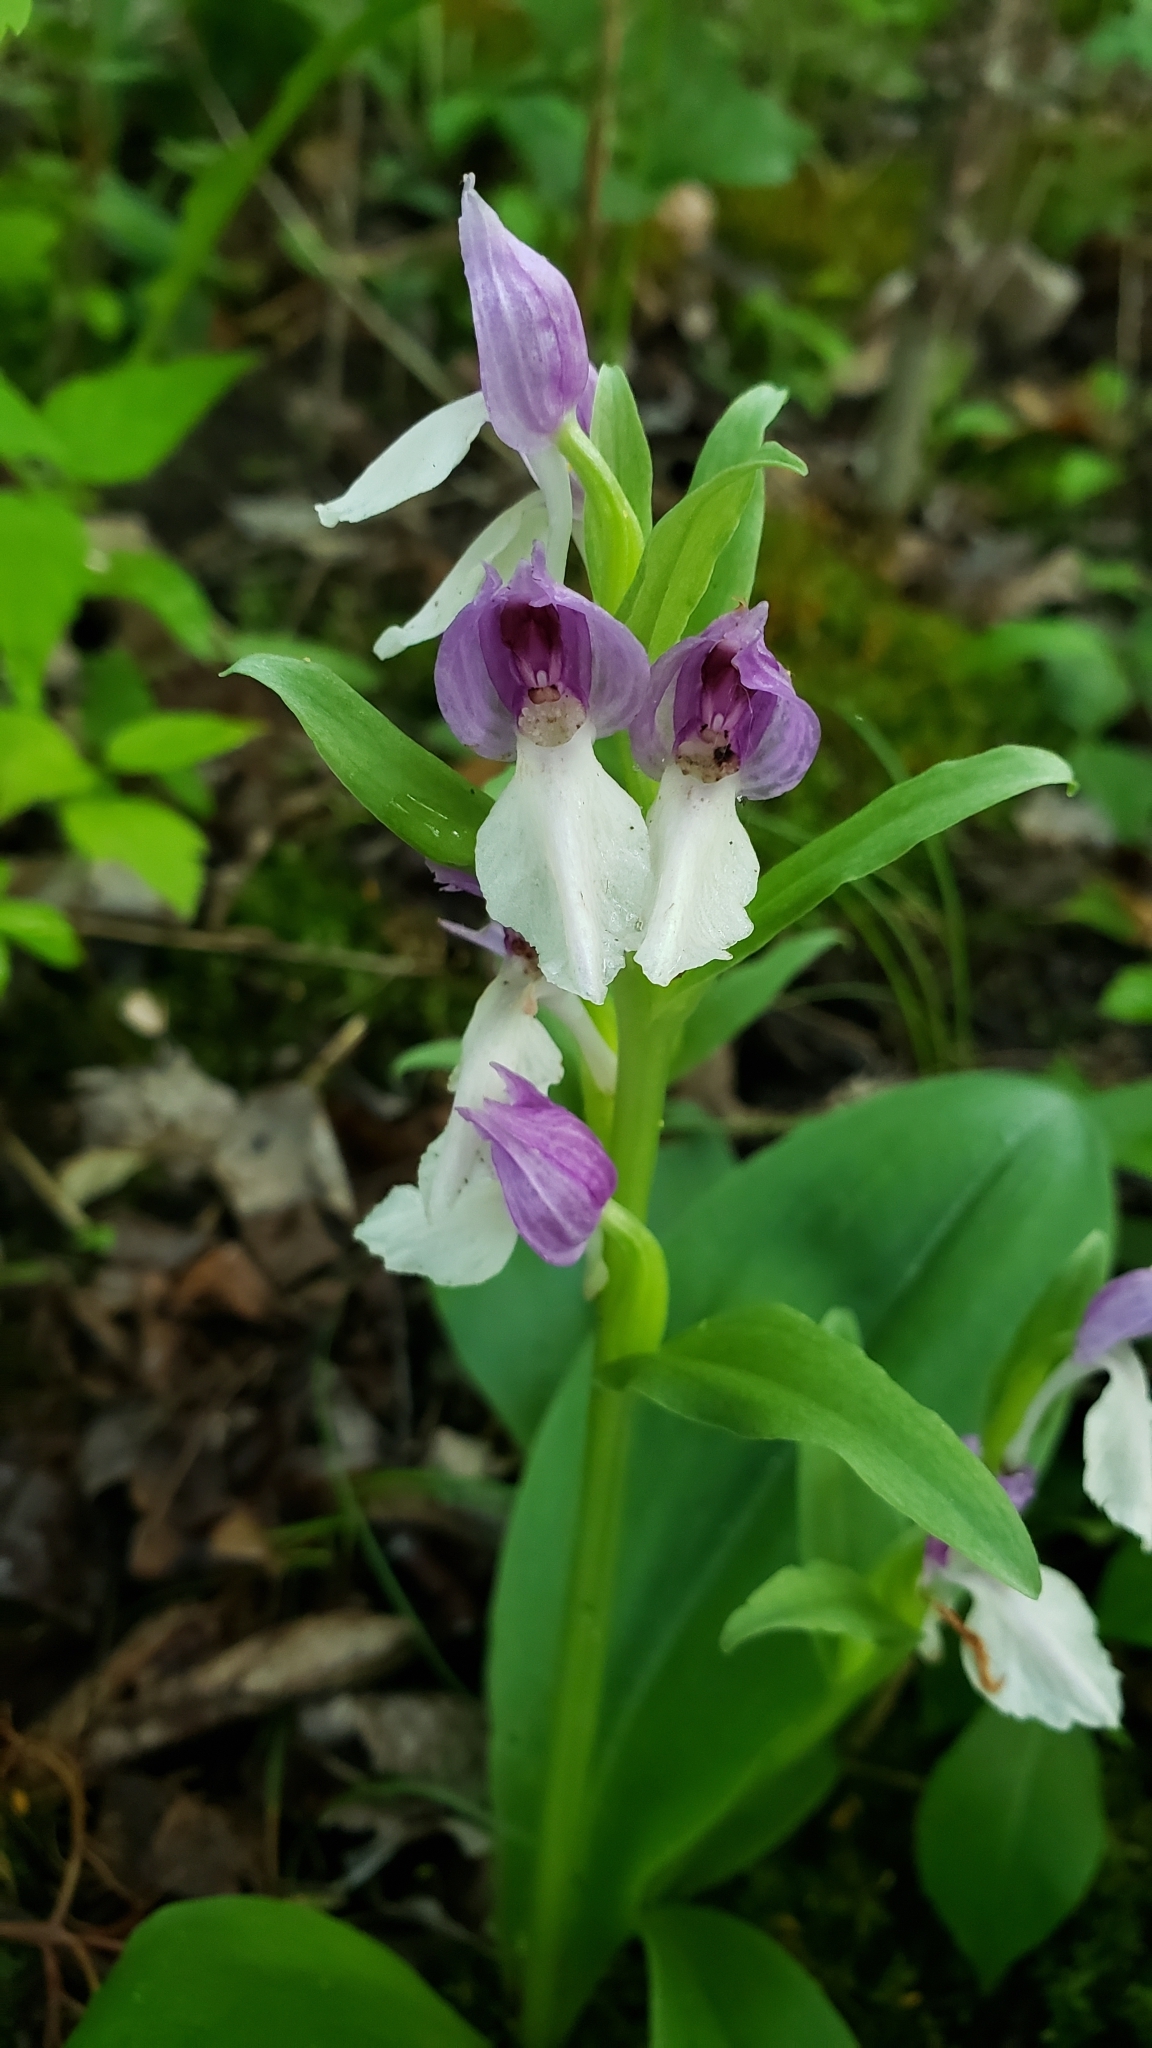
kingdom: Plantae
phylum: Tracheophyta
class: Liliopsida
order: Asparagales
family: Orchidaceae
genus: Galearis
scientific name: Galearis spectabilis
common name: Purple-hooded orchis
